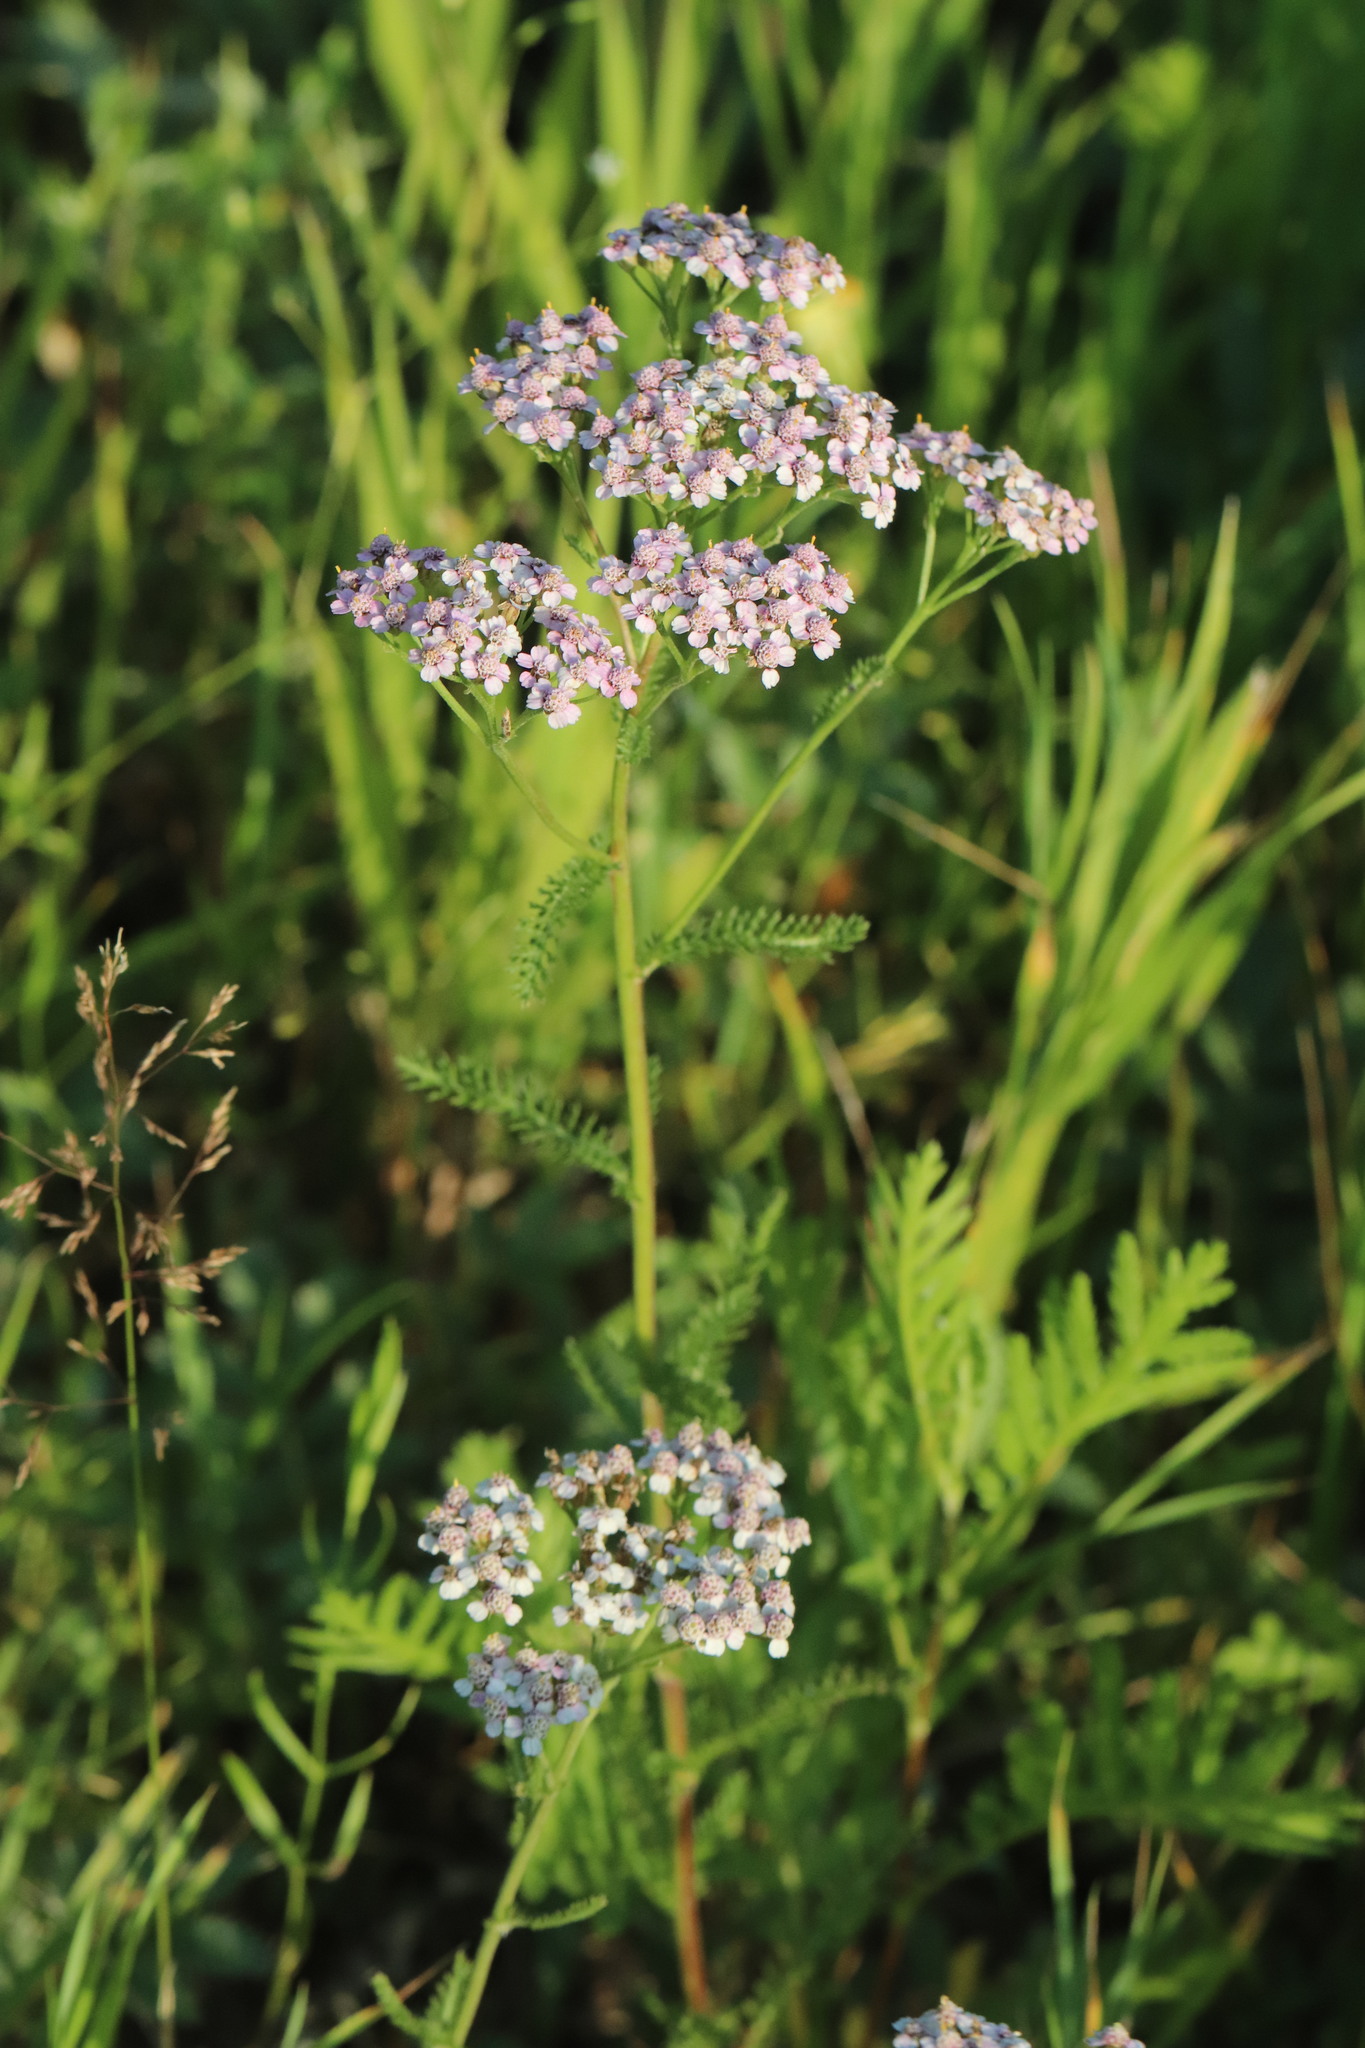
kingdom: Plantae
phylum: Tracheophyta
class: Magnoliopsida
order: Asterales
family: Asteraceae
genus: Achillea
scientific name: Achillea asiatica
